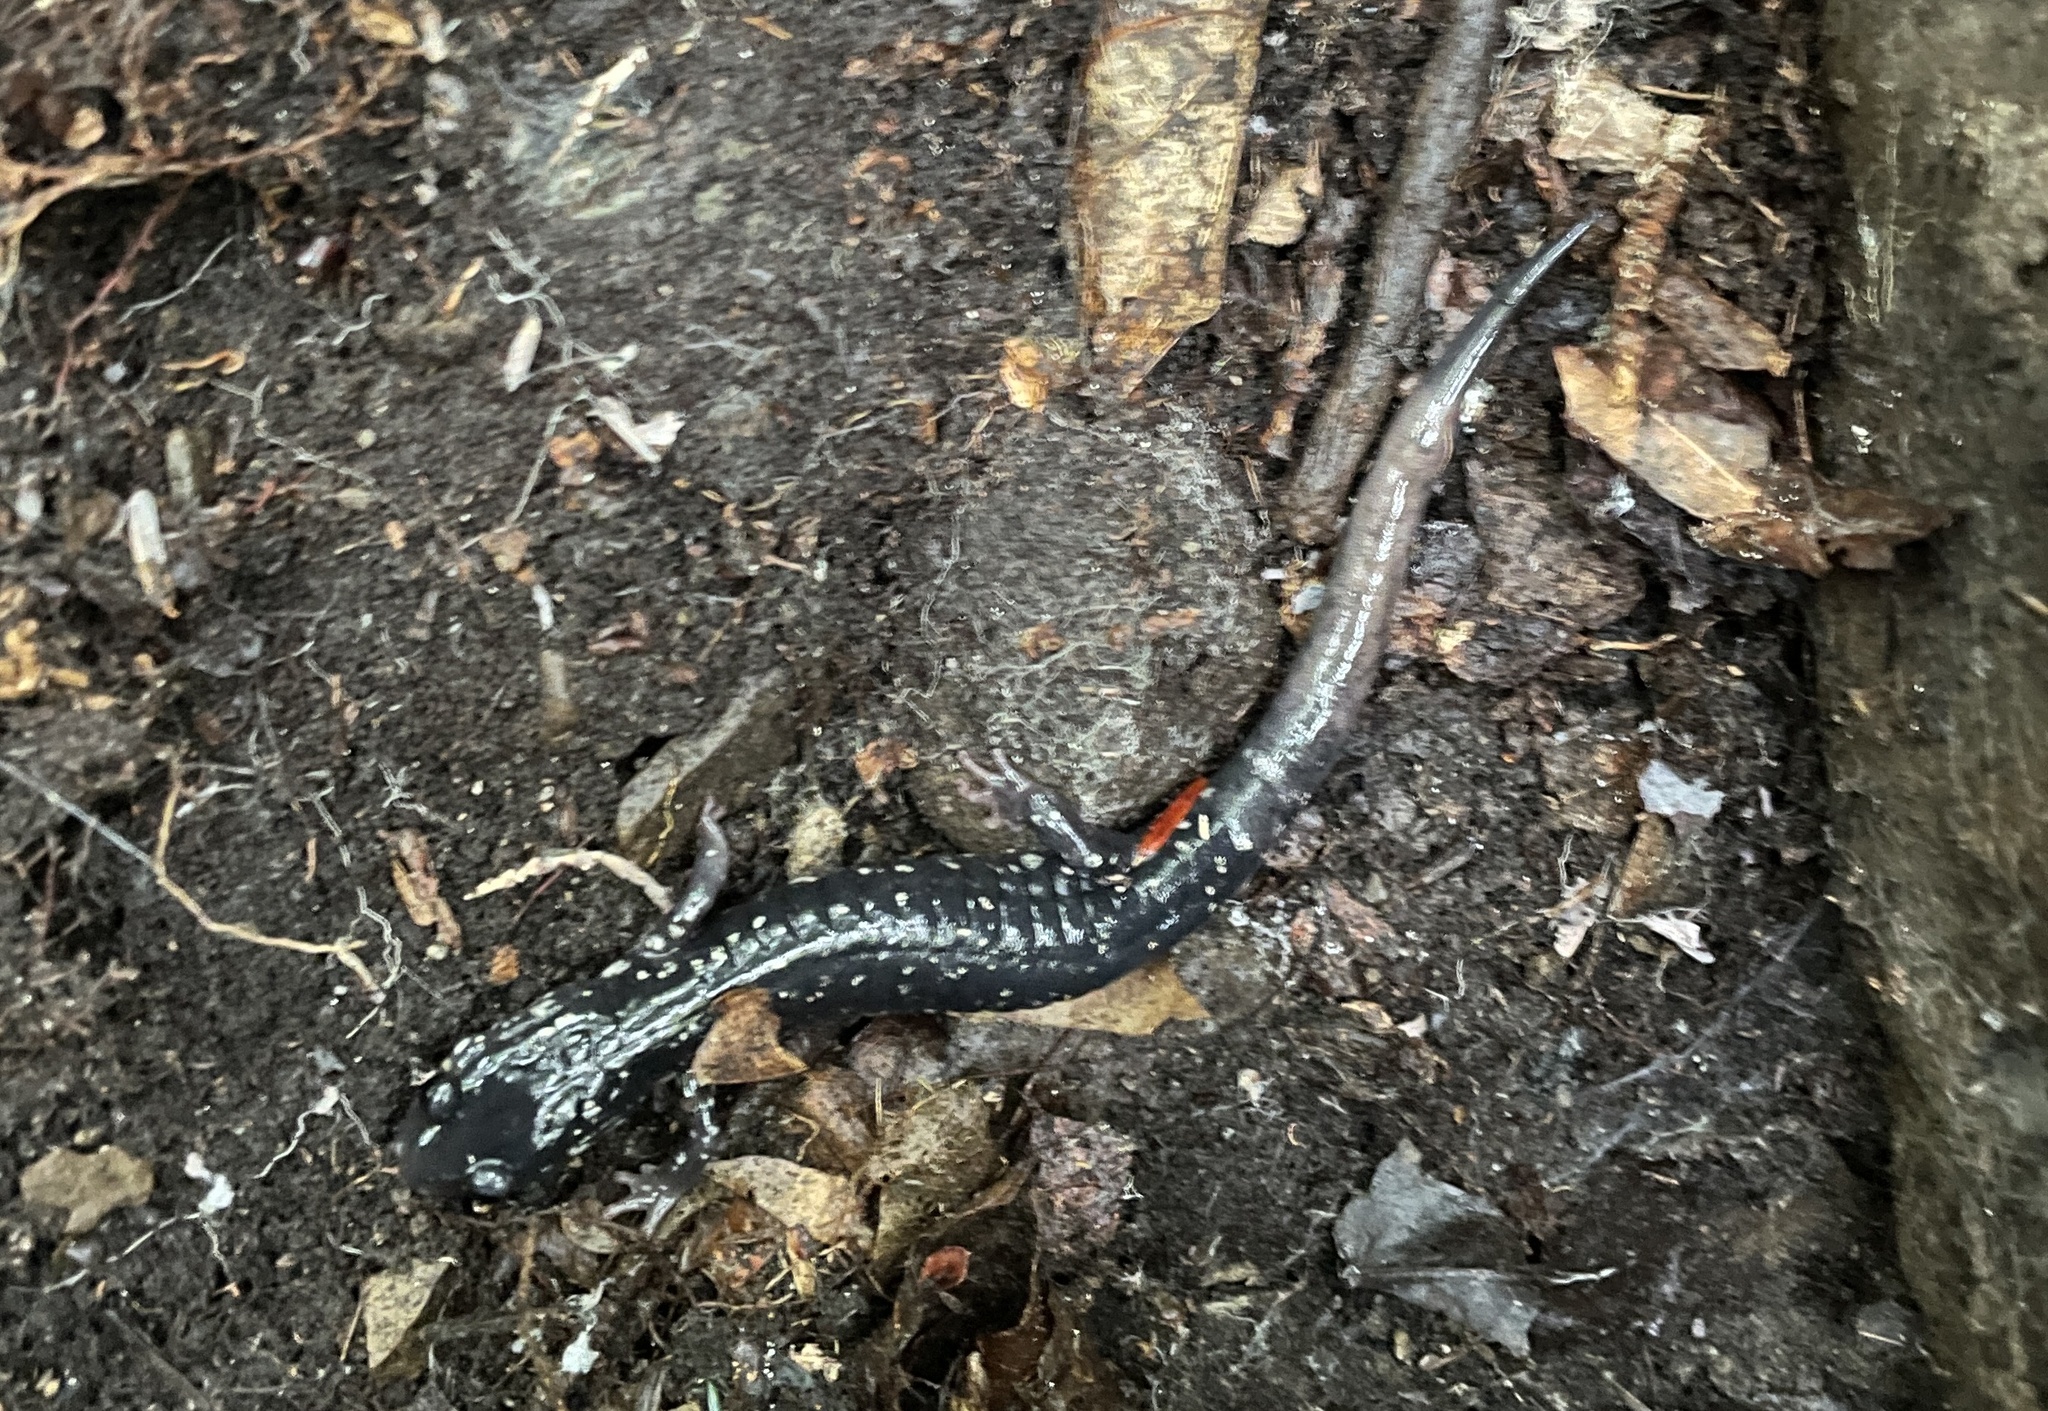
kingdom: Animalia
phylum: Chordata
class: Amphibia
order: Caudata
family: Plethodontidae
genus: Plethodon
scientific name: Plethodon glutinosus
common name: Northern slimy salamander
